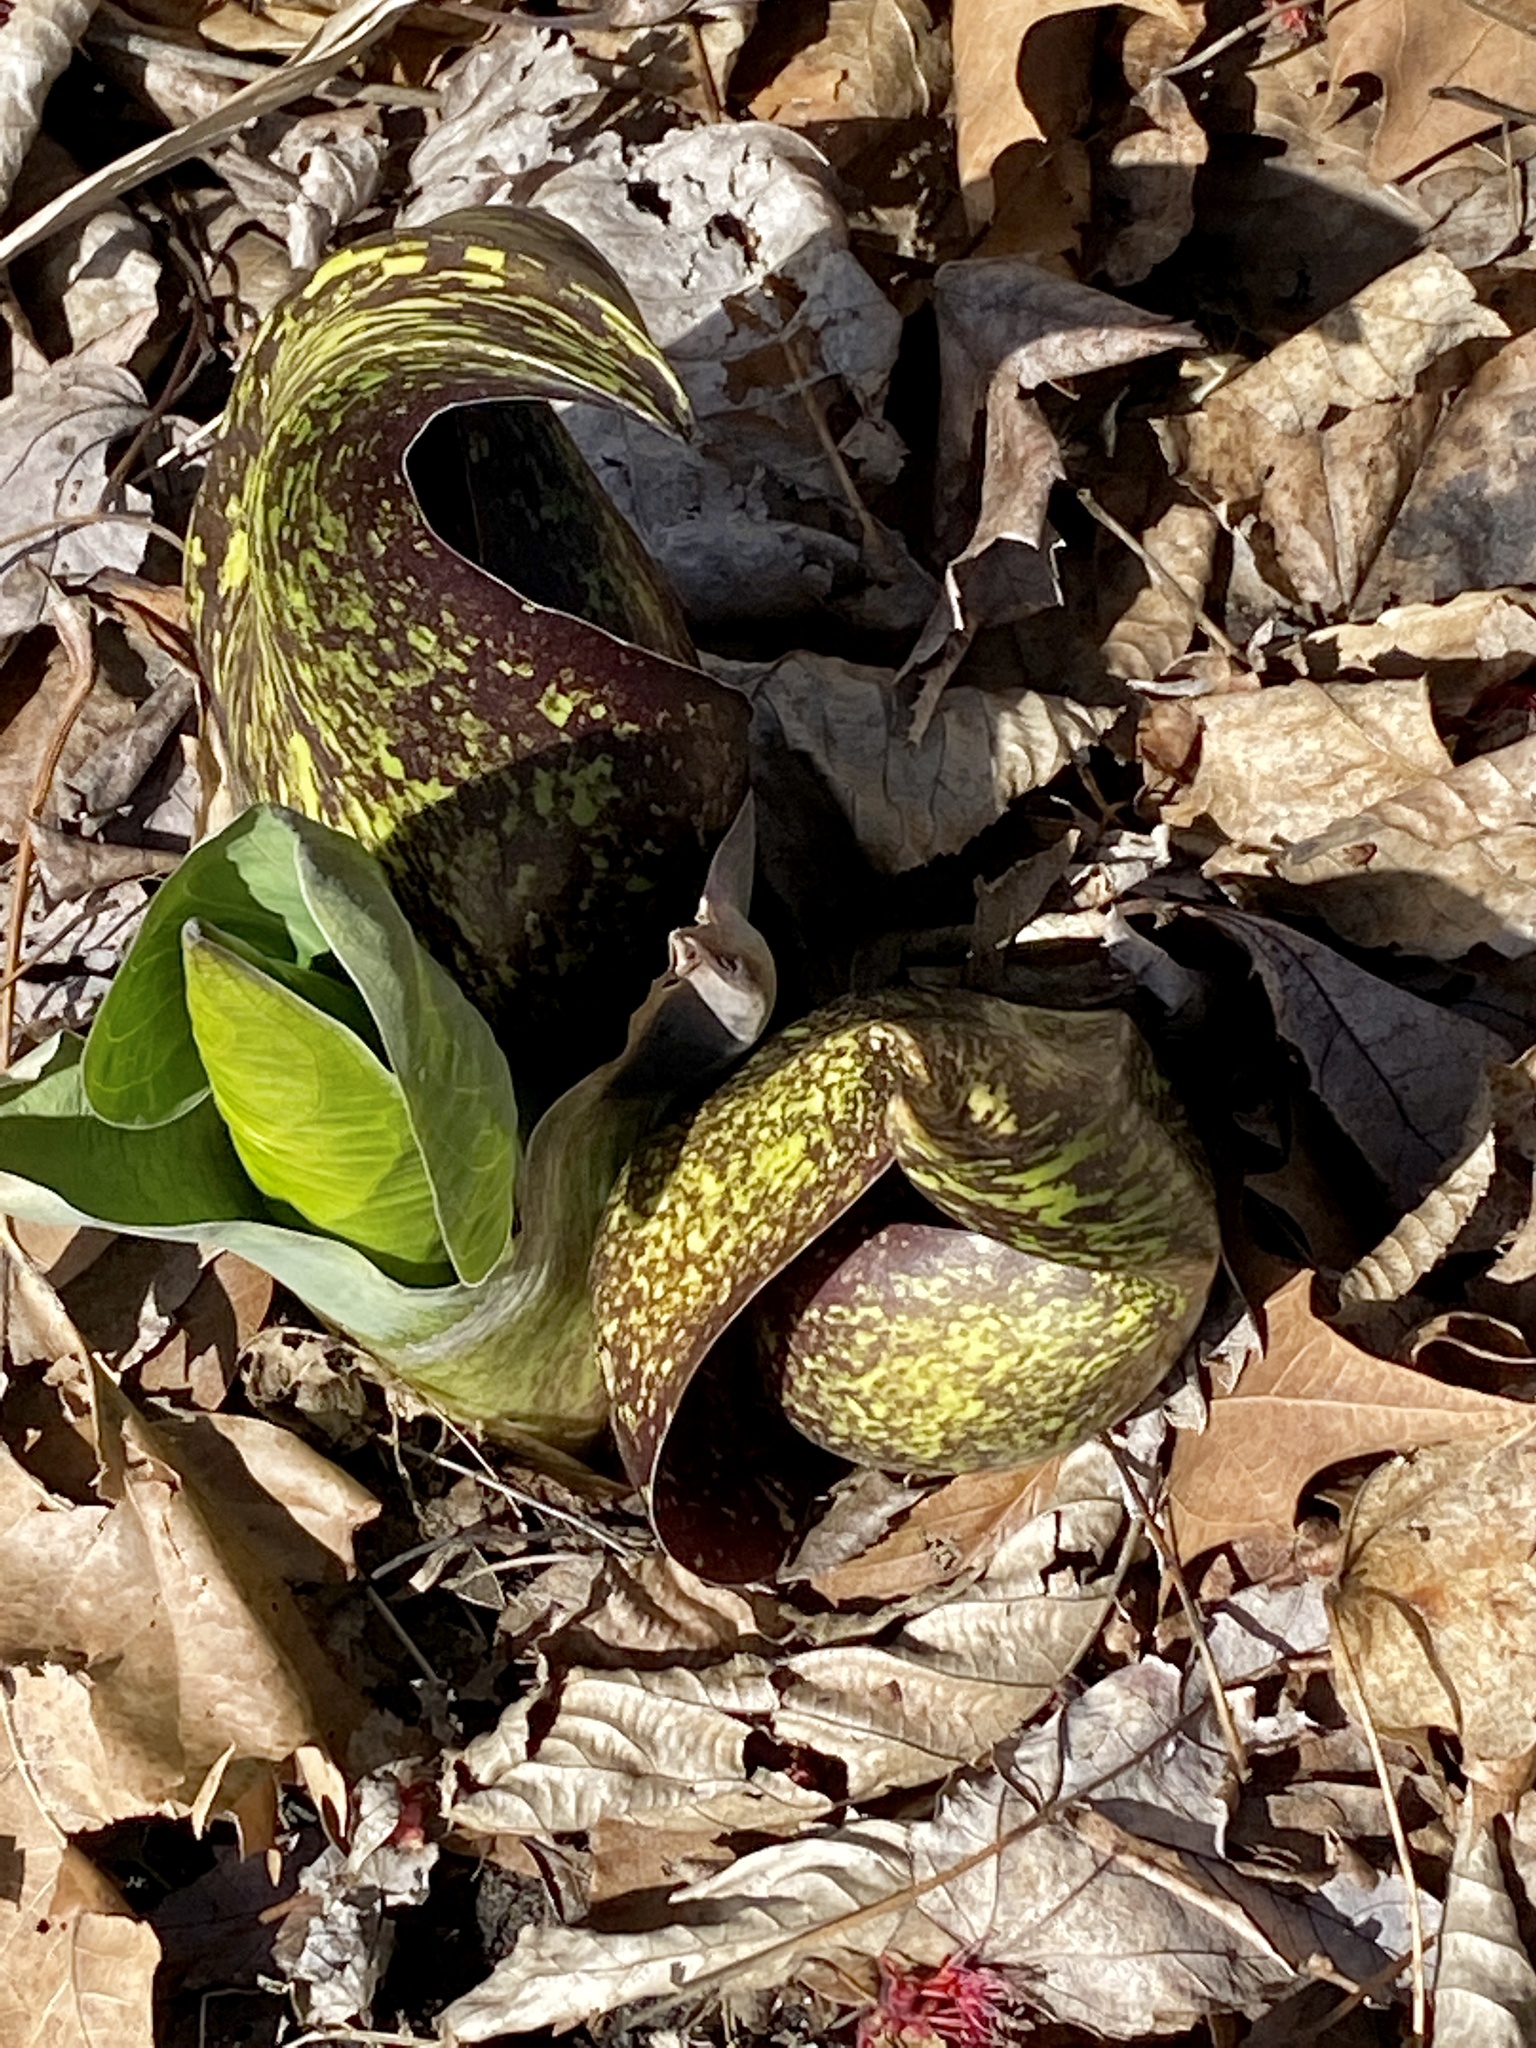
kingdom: Plantae
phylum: Tracheophyta
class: Liliopsida
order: Alismatales
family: Araceae
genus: Symplocarpus
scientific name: Symplocarpus foetidus
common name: Eastern skunk cabbage
